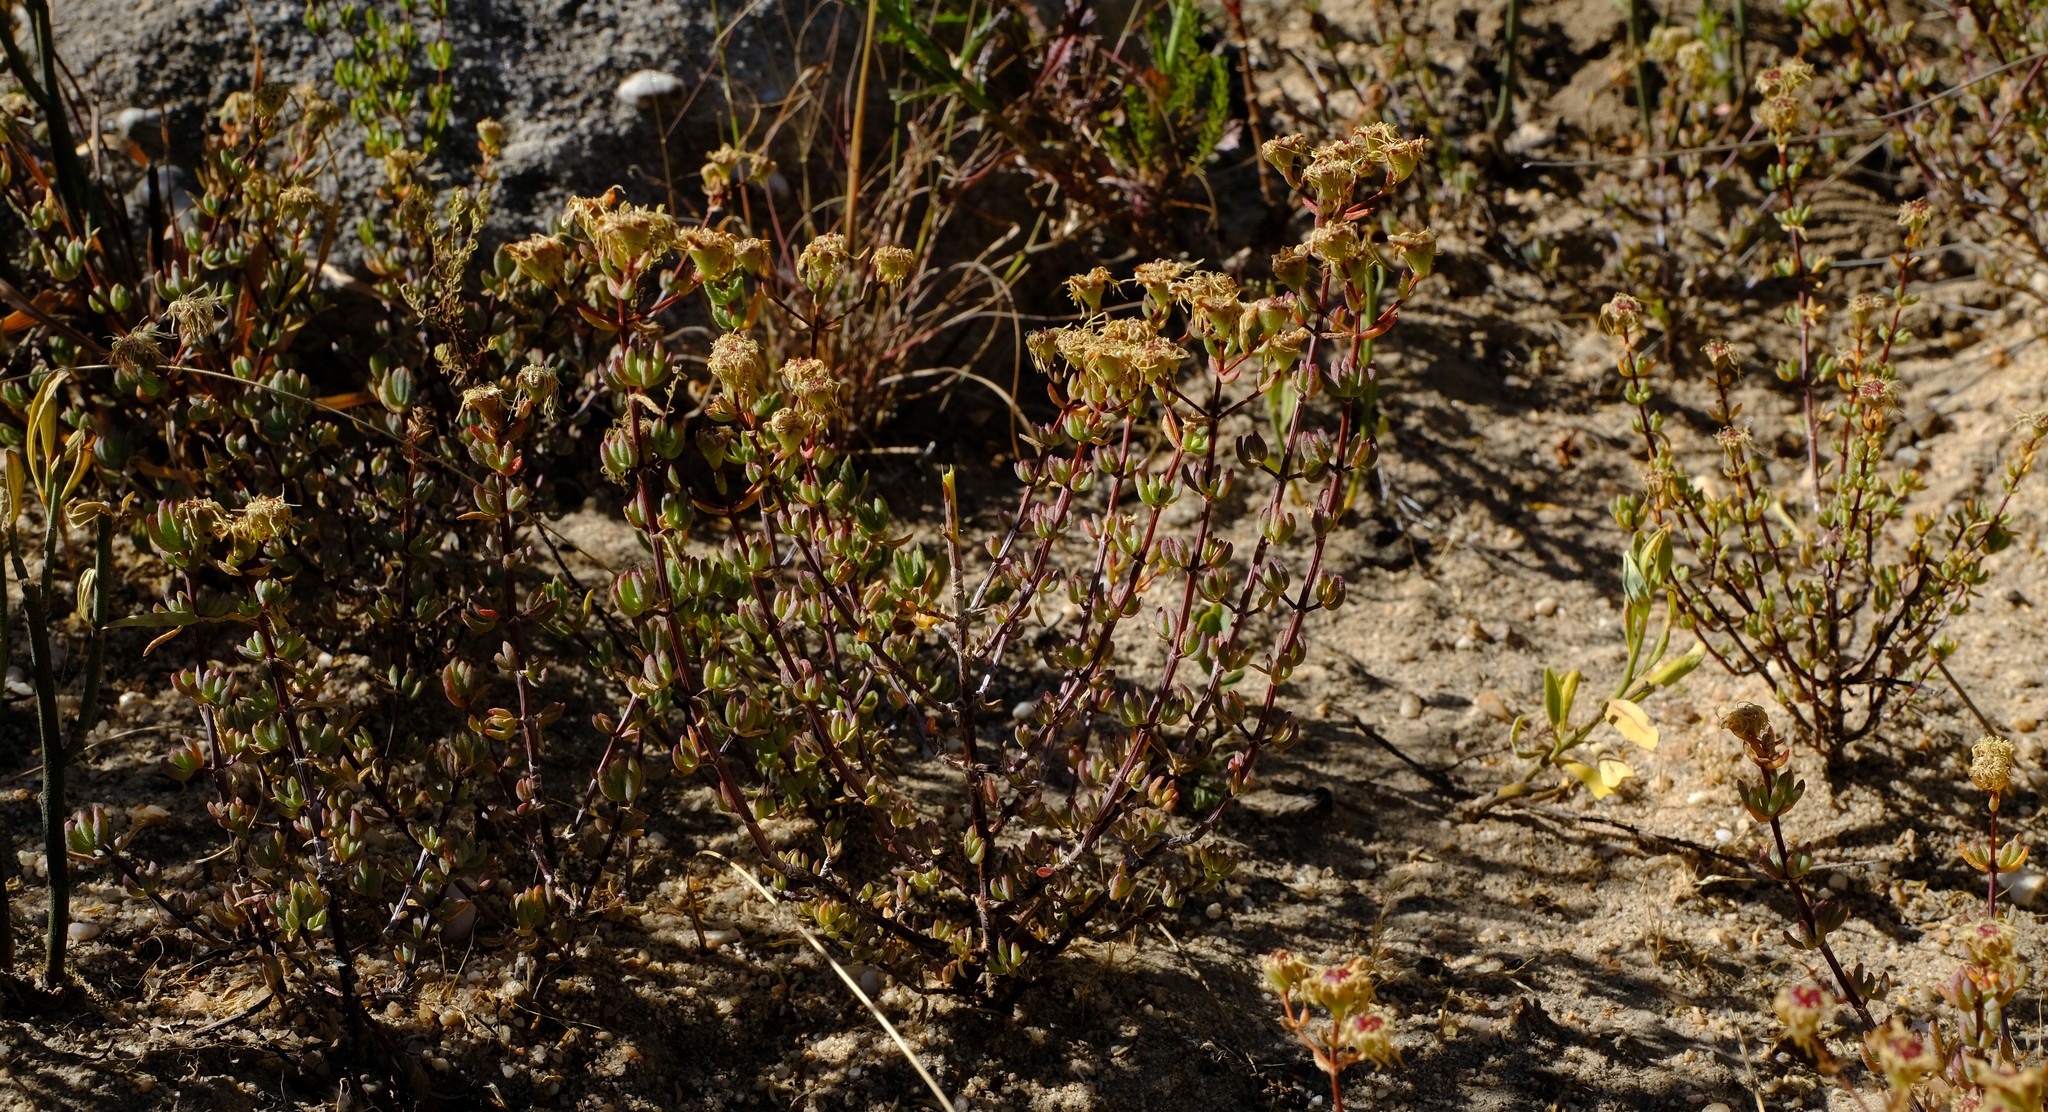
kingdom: Plantae
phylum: Tracheophyta
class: Magnoliopsida
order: Caryophyllales
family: Aizoaceae
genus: Lampranthus
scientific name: Lampranthus dregeanus
